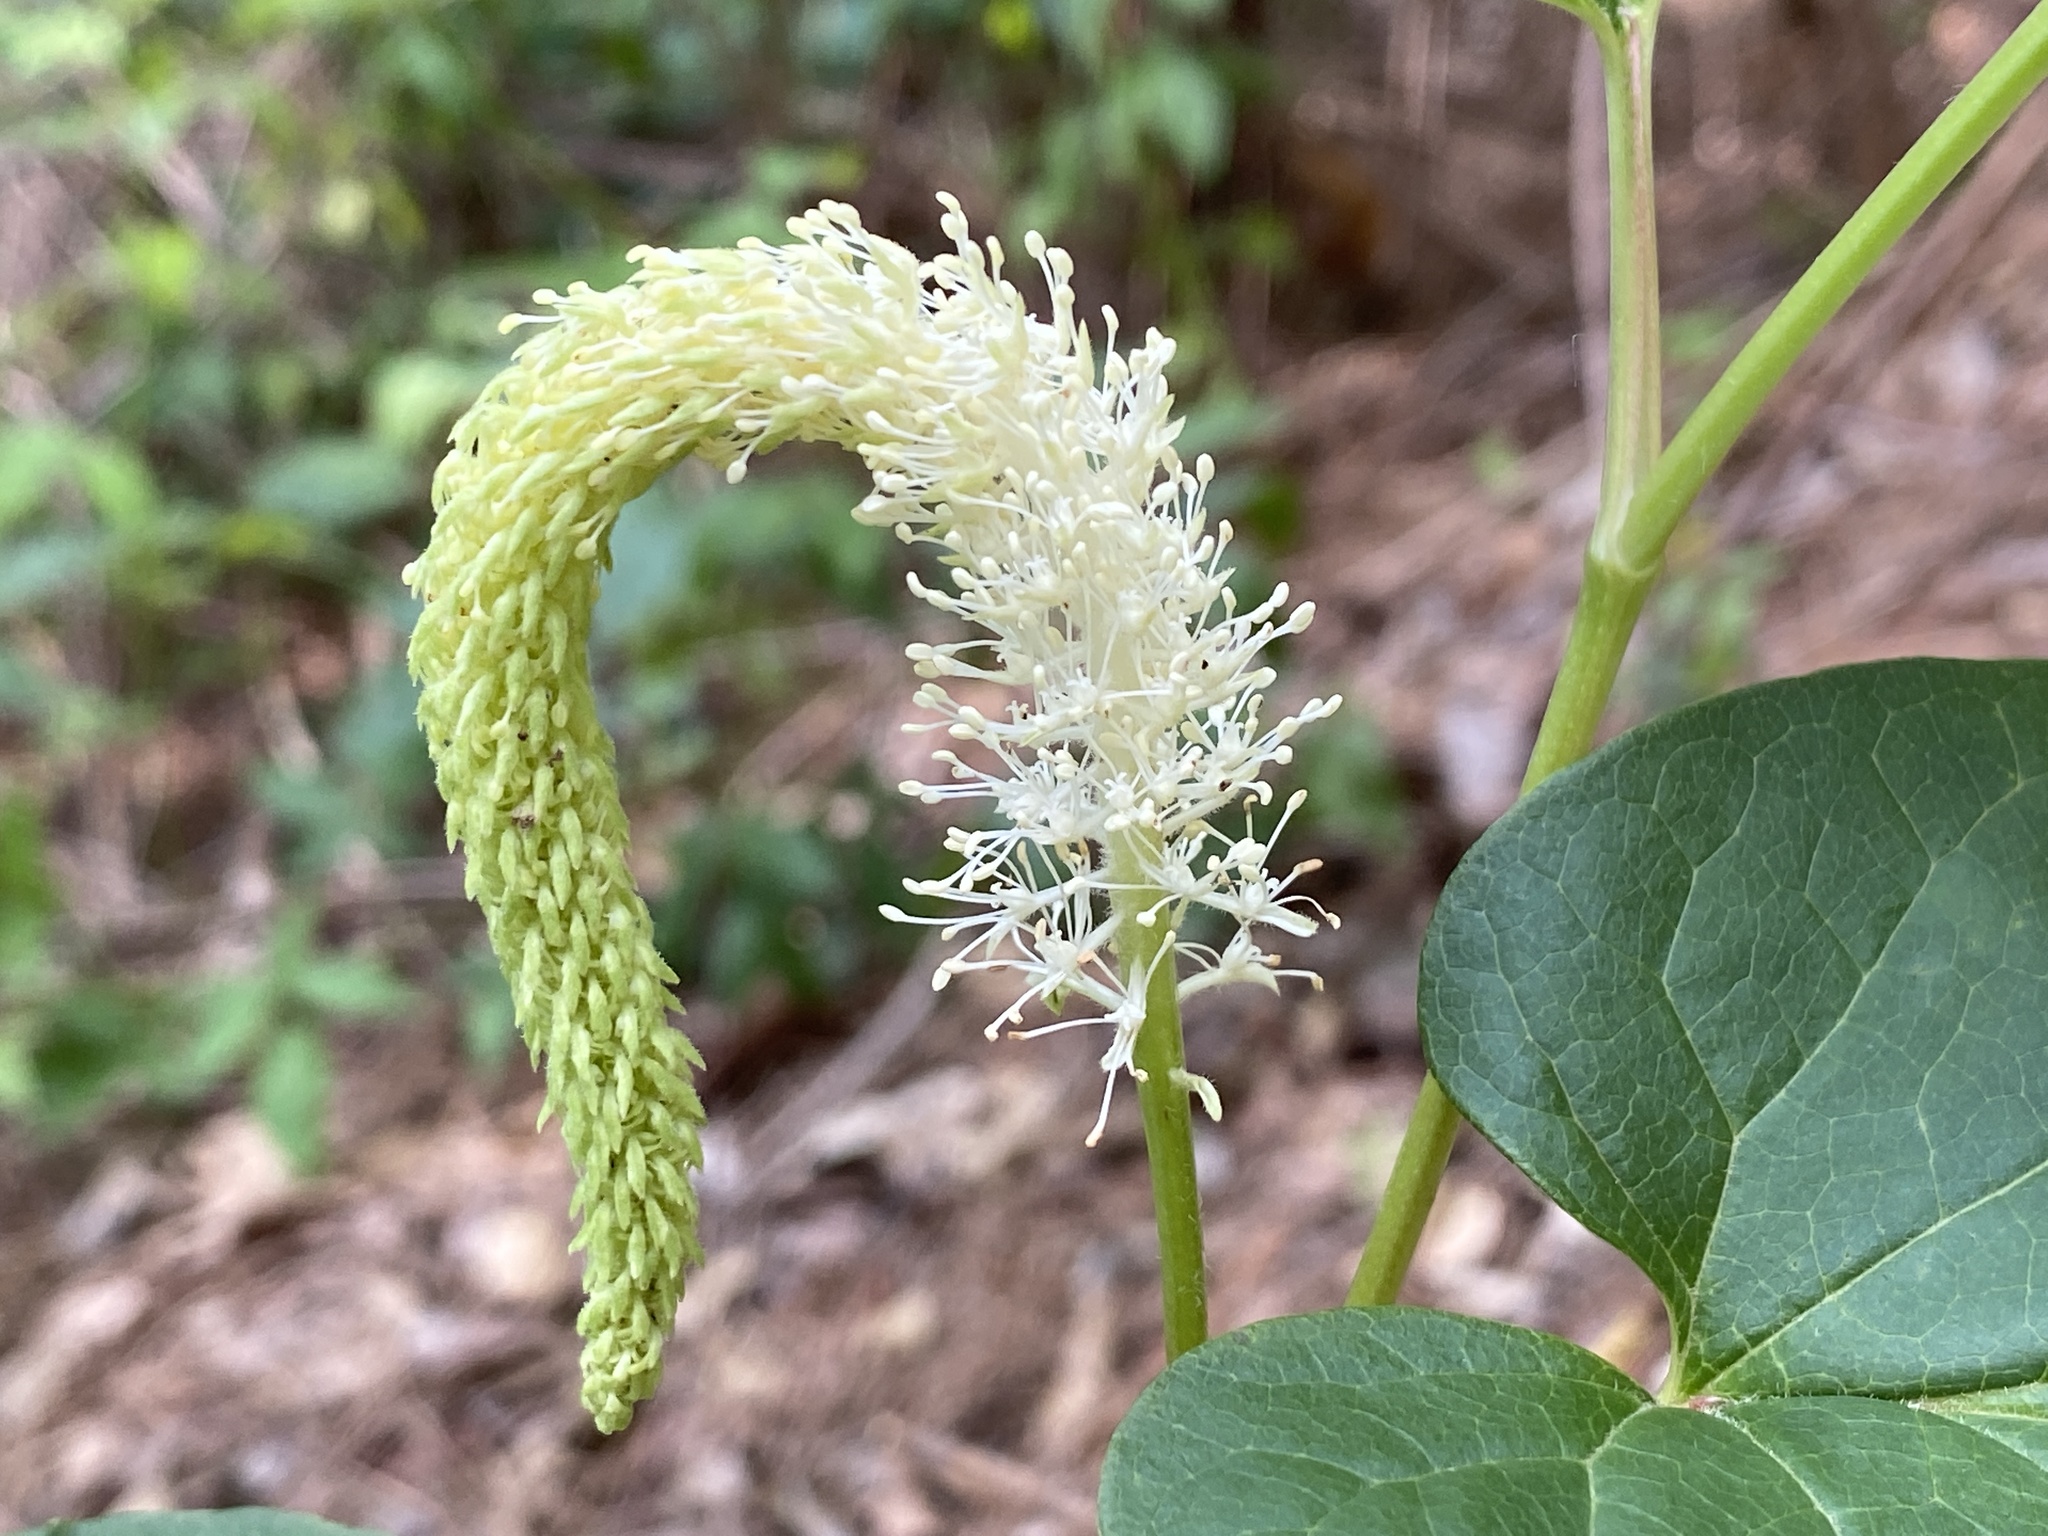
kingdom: Plantae
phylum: Tracheophyta
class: Magnoliopsida
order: Piperales
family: Saururaceae
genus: Saururus
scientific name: Saururus cernuus
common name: Lizard's-tail
